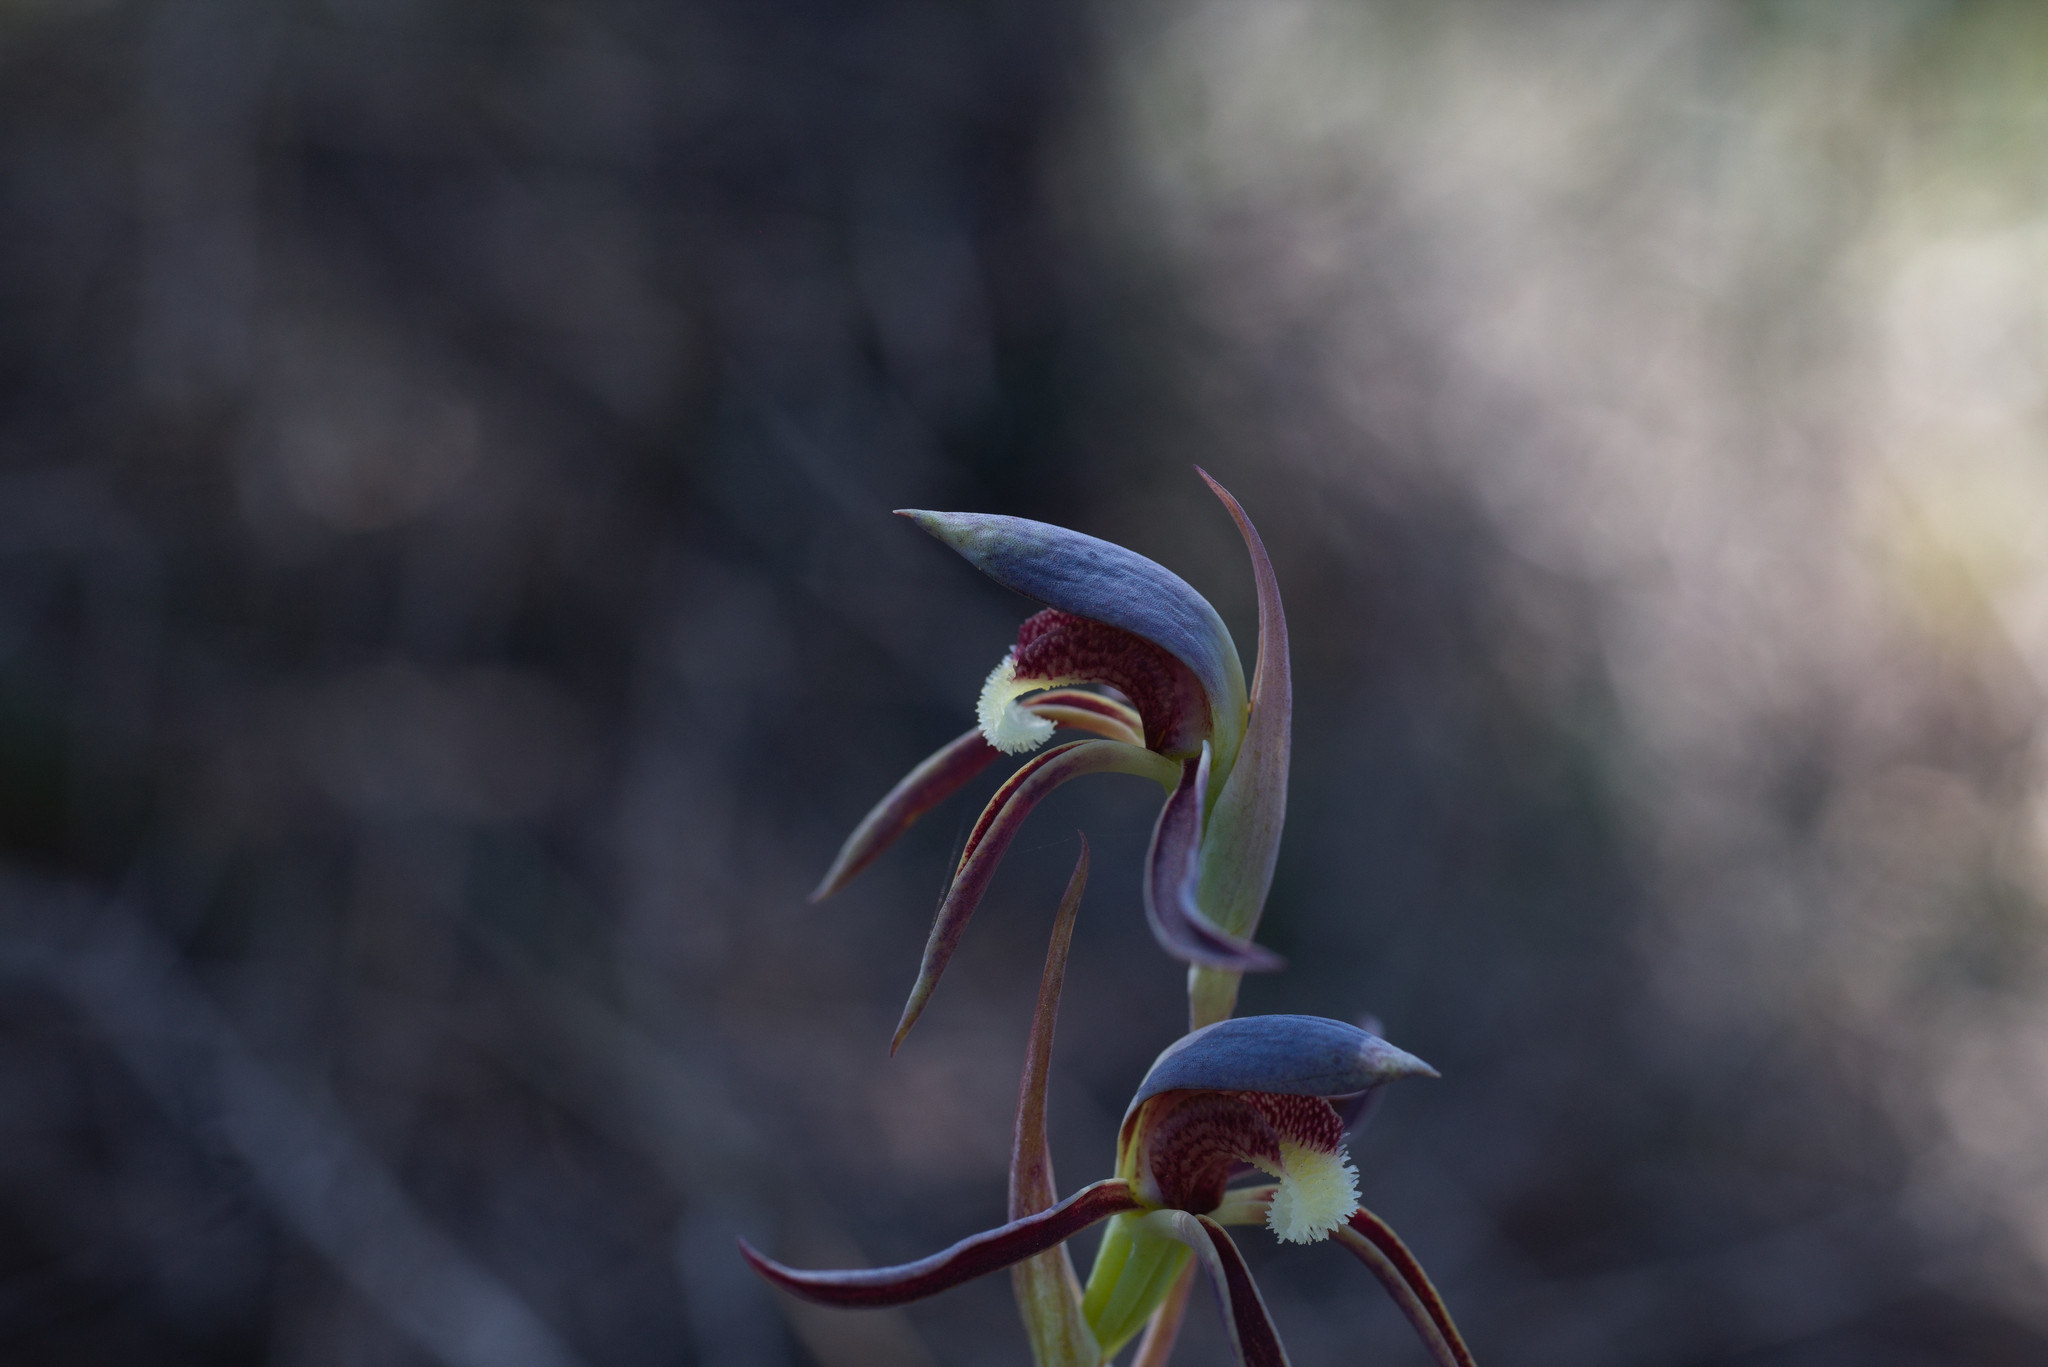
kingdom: Plantae
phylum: Tracheophyta
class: Liliopsida
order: Asparagales
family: Orchidaceae
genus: Lyperanthus
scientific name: Lyperanthus serratus
